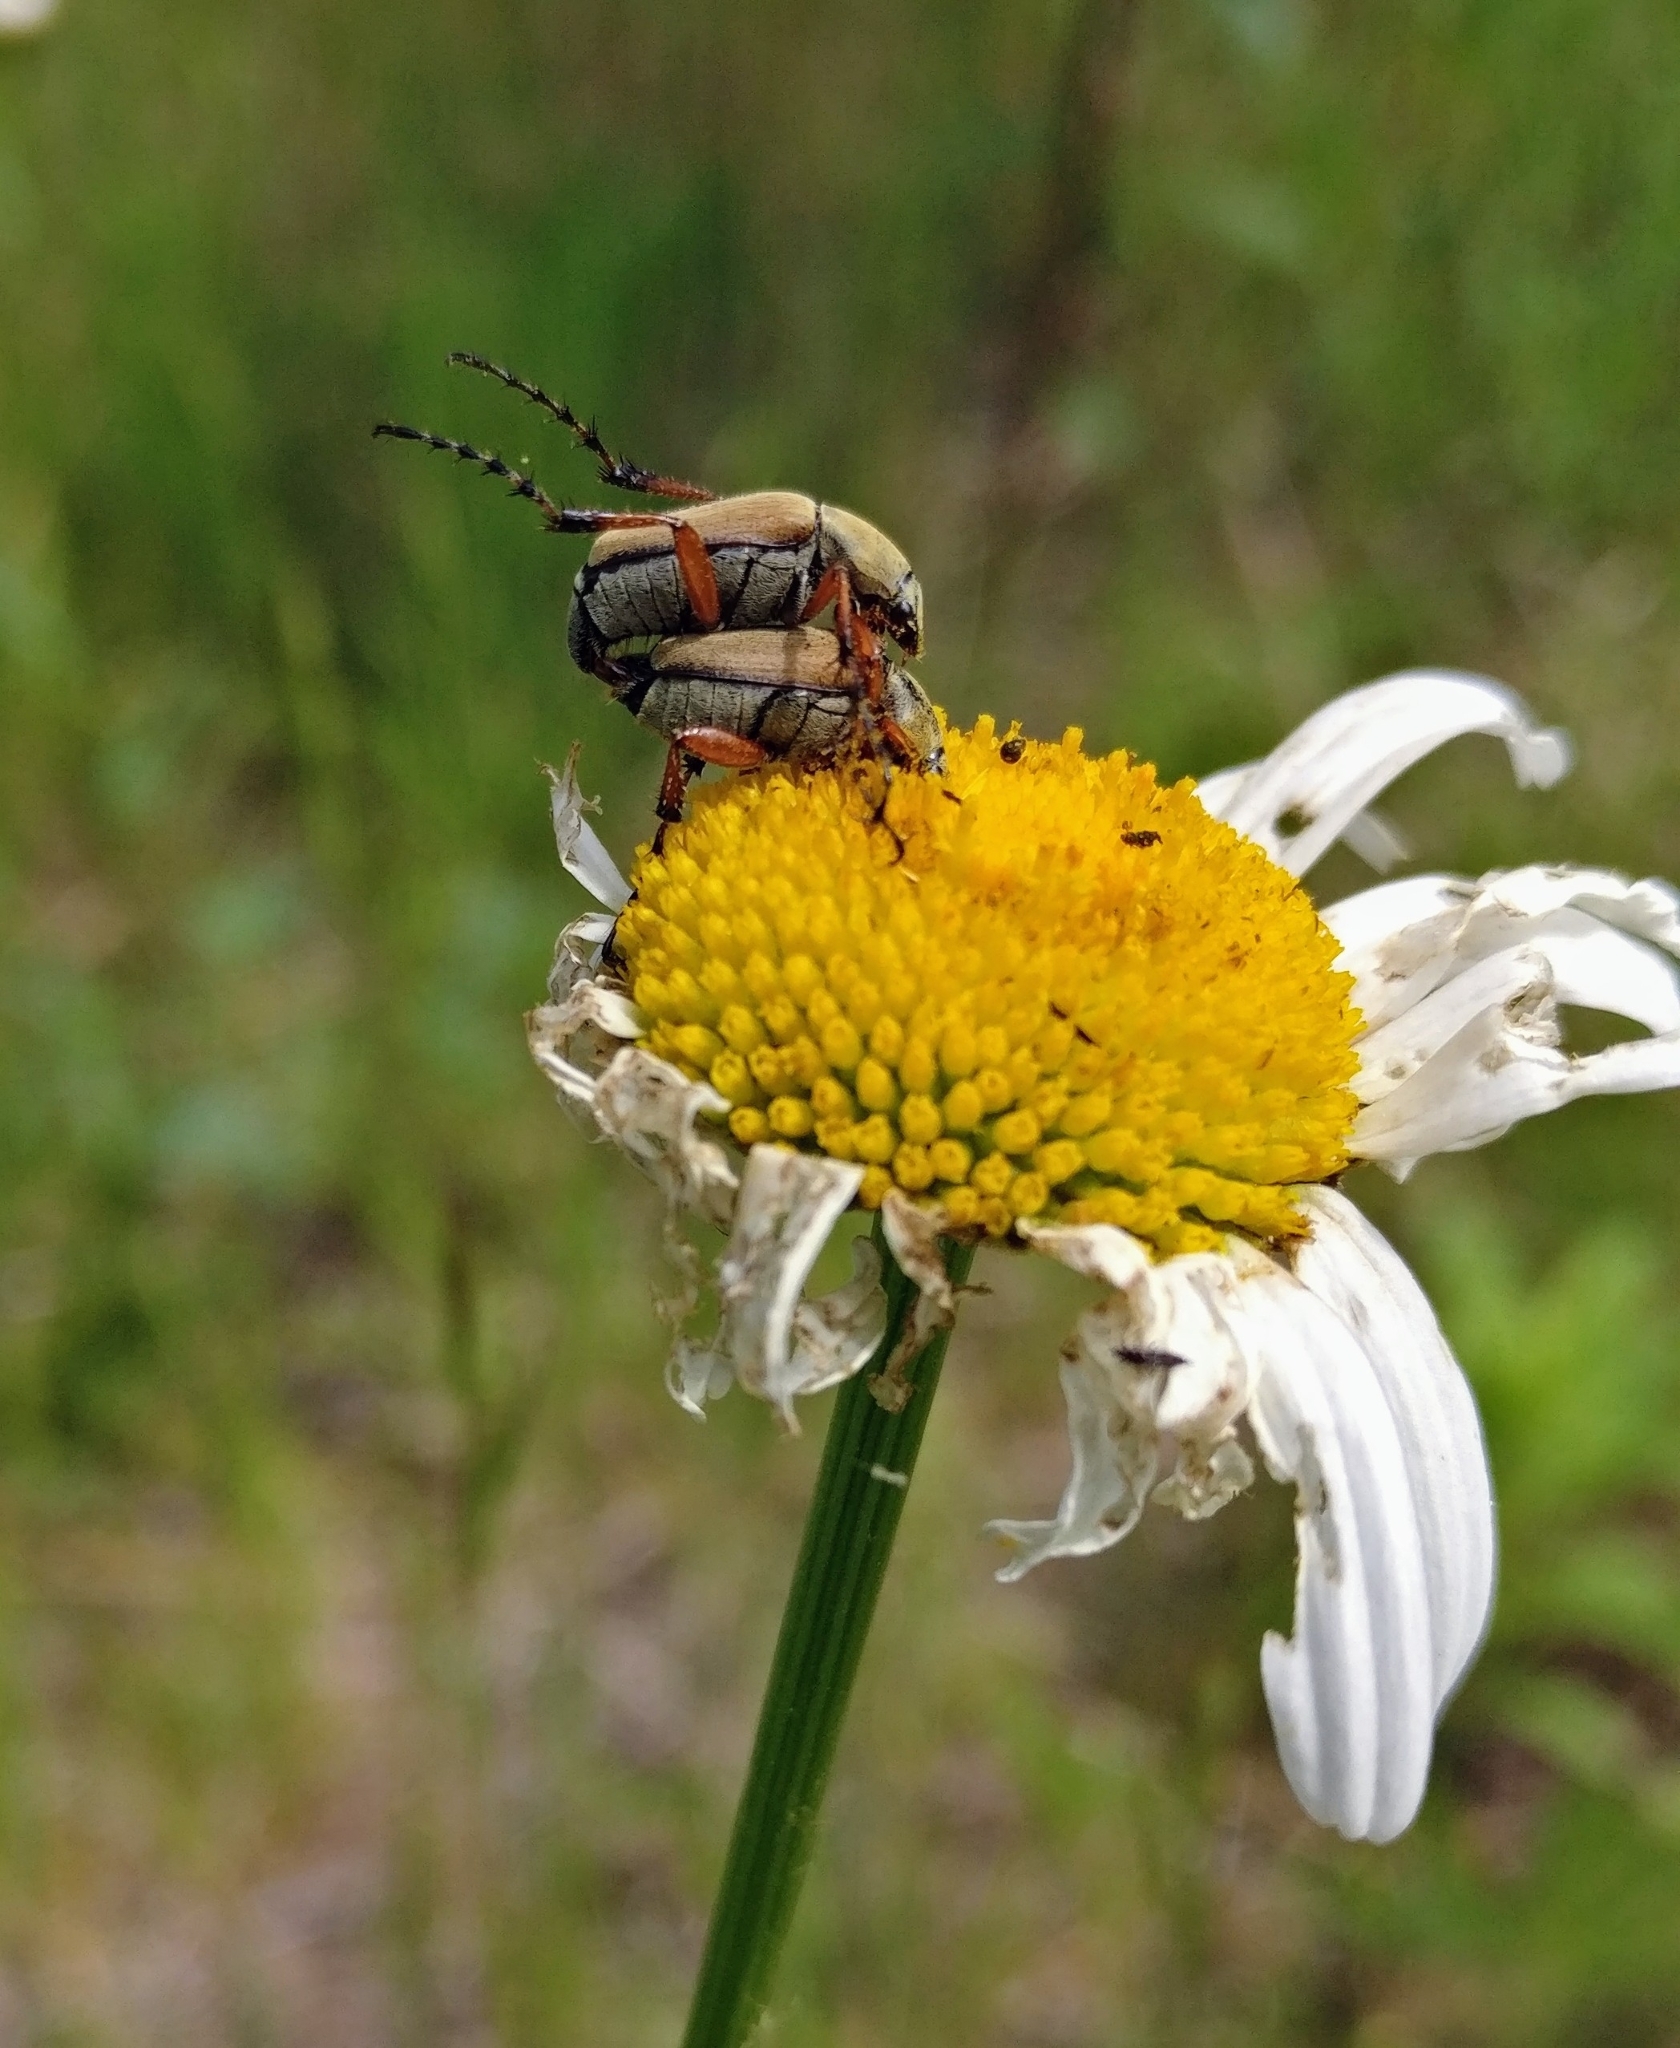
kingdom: Animalia
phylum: Arthropoda
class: Insecta
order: Coleoptera
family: Scarabaeidae
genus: Macrodactylus
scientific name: Macrodactylus subspinosus
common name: American rose chafer
